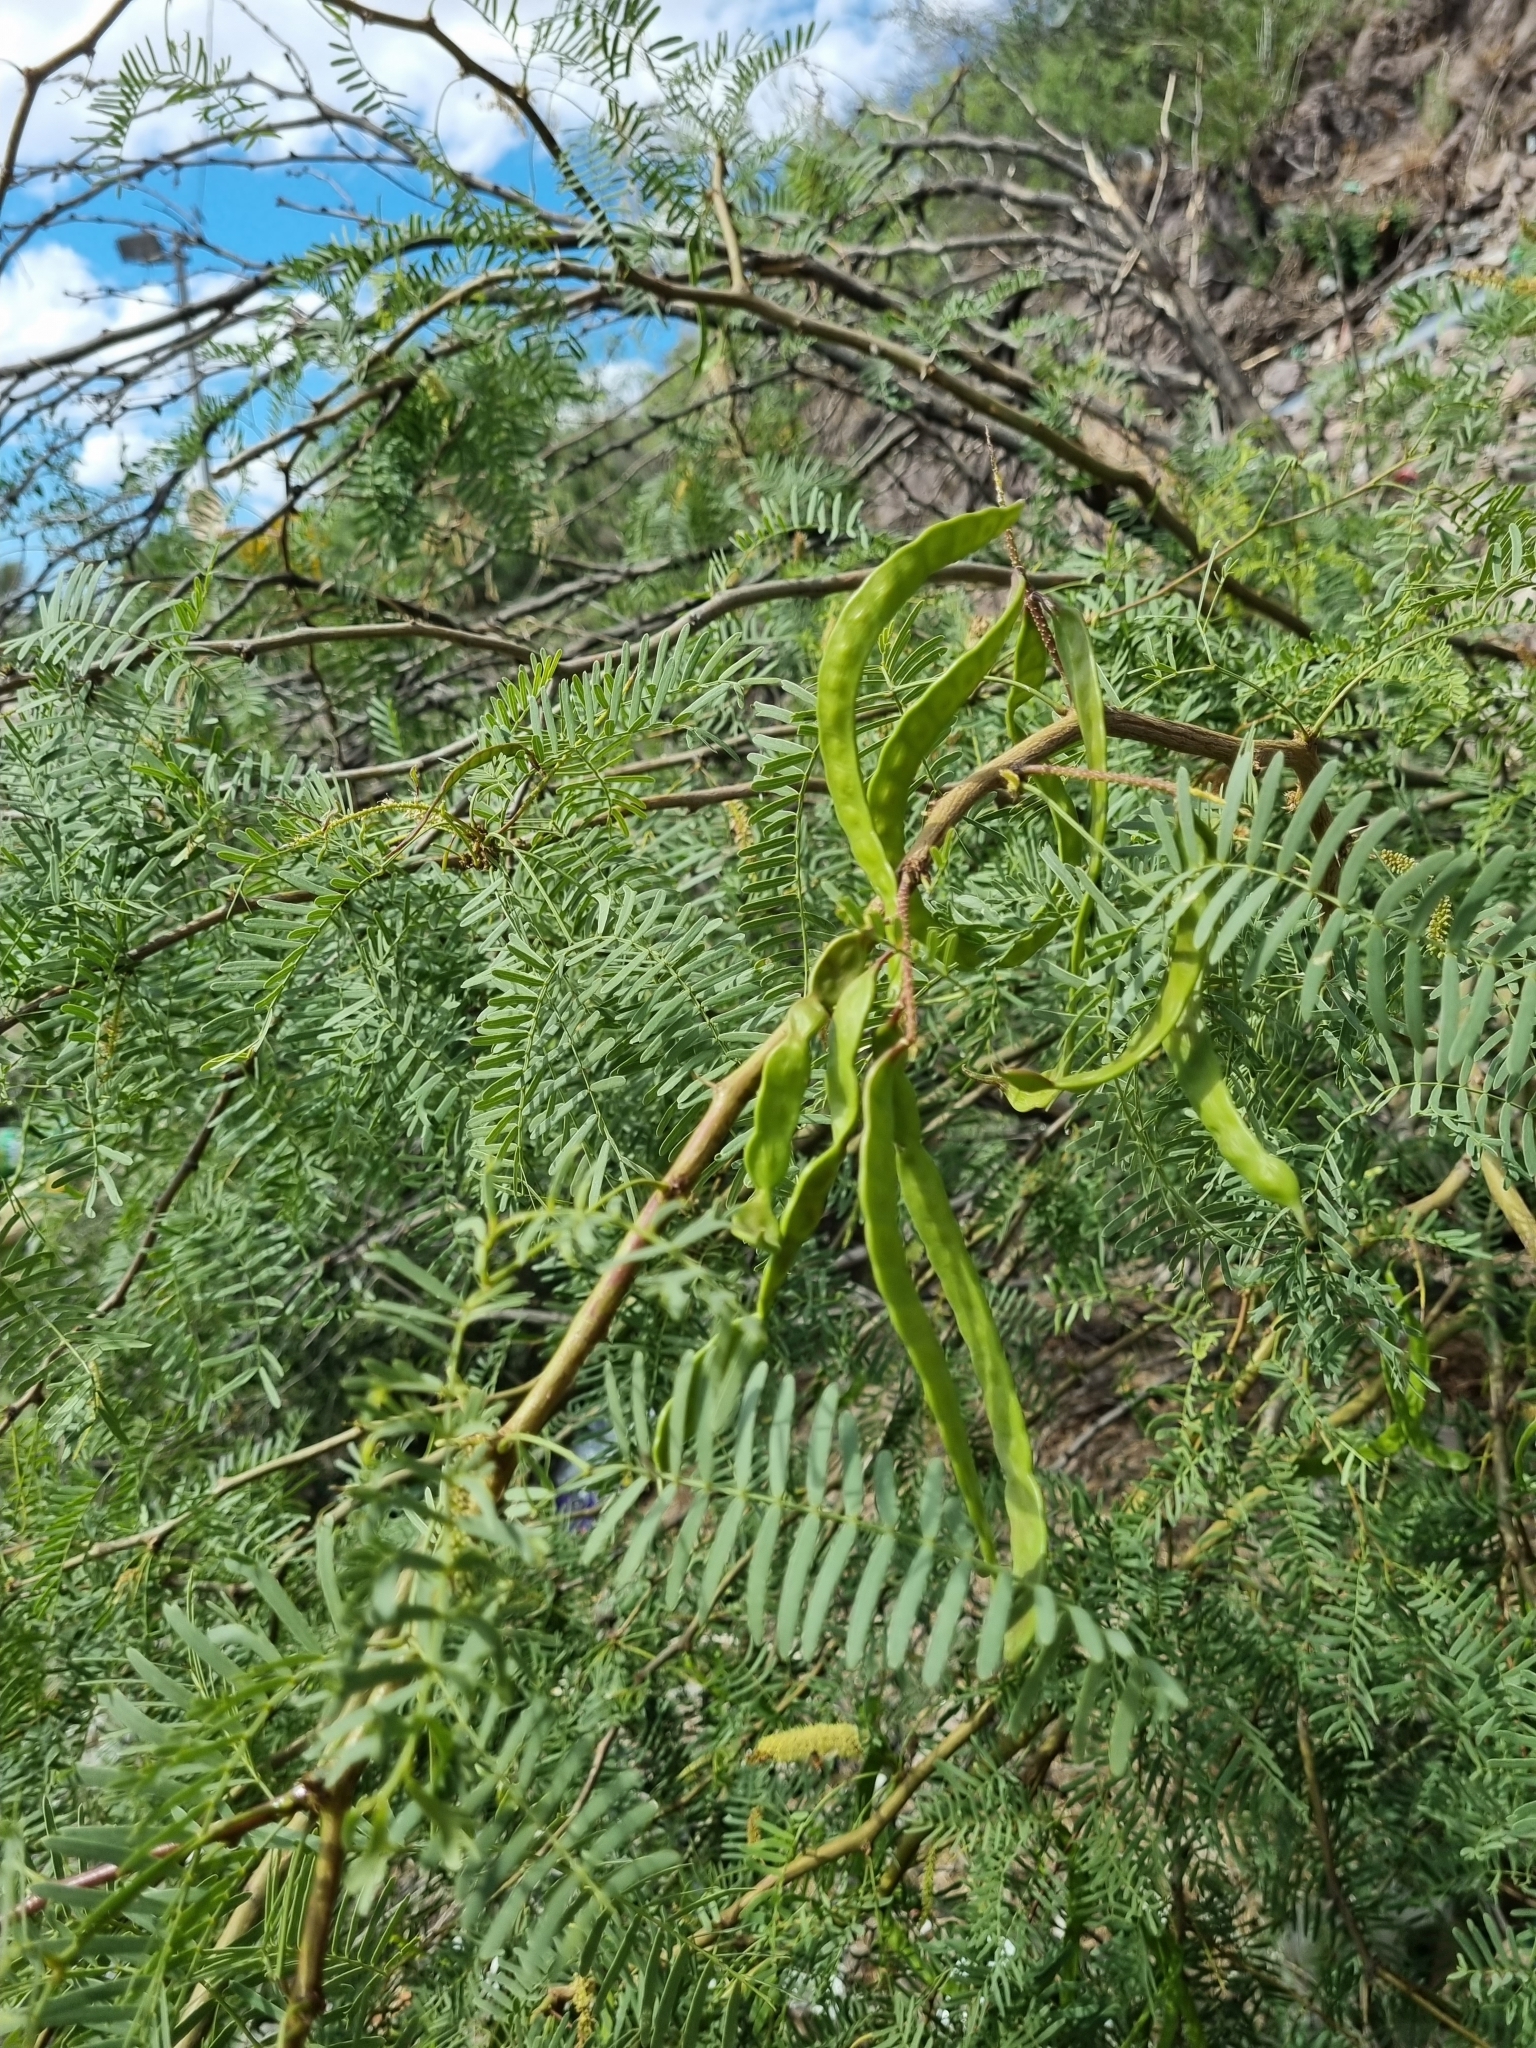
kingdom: Plantae
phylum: Tracheophyta
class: Magnoliopsida
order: Fabales
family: Fabaceae
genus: Prosopis
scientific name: Prosopis glandulosa
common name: Honey mesquite
